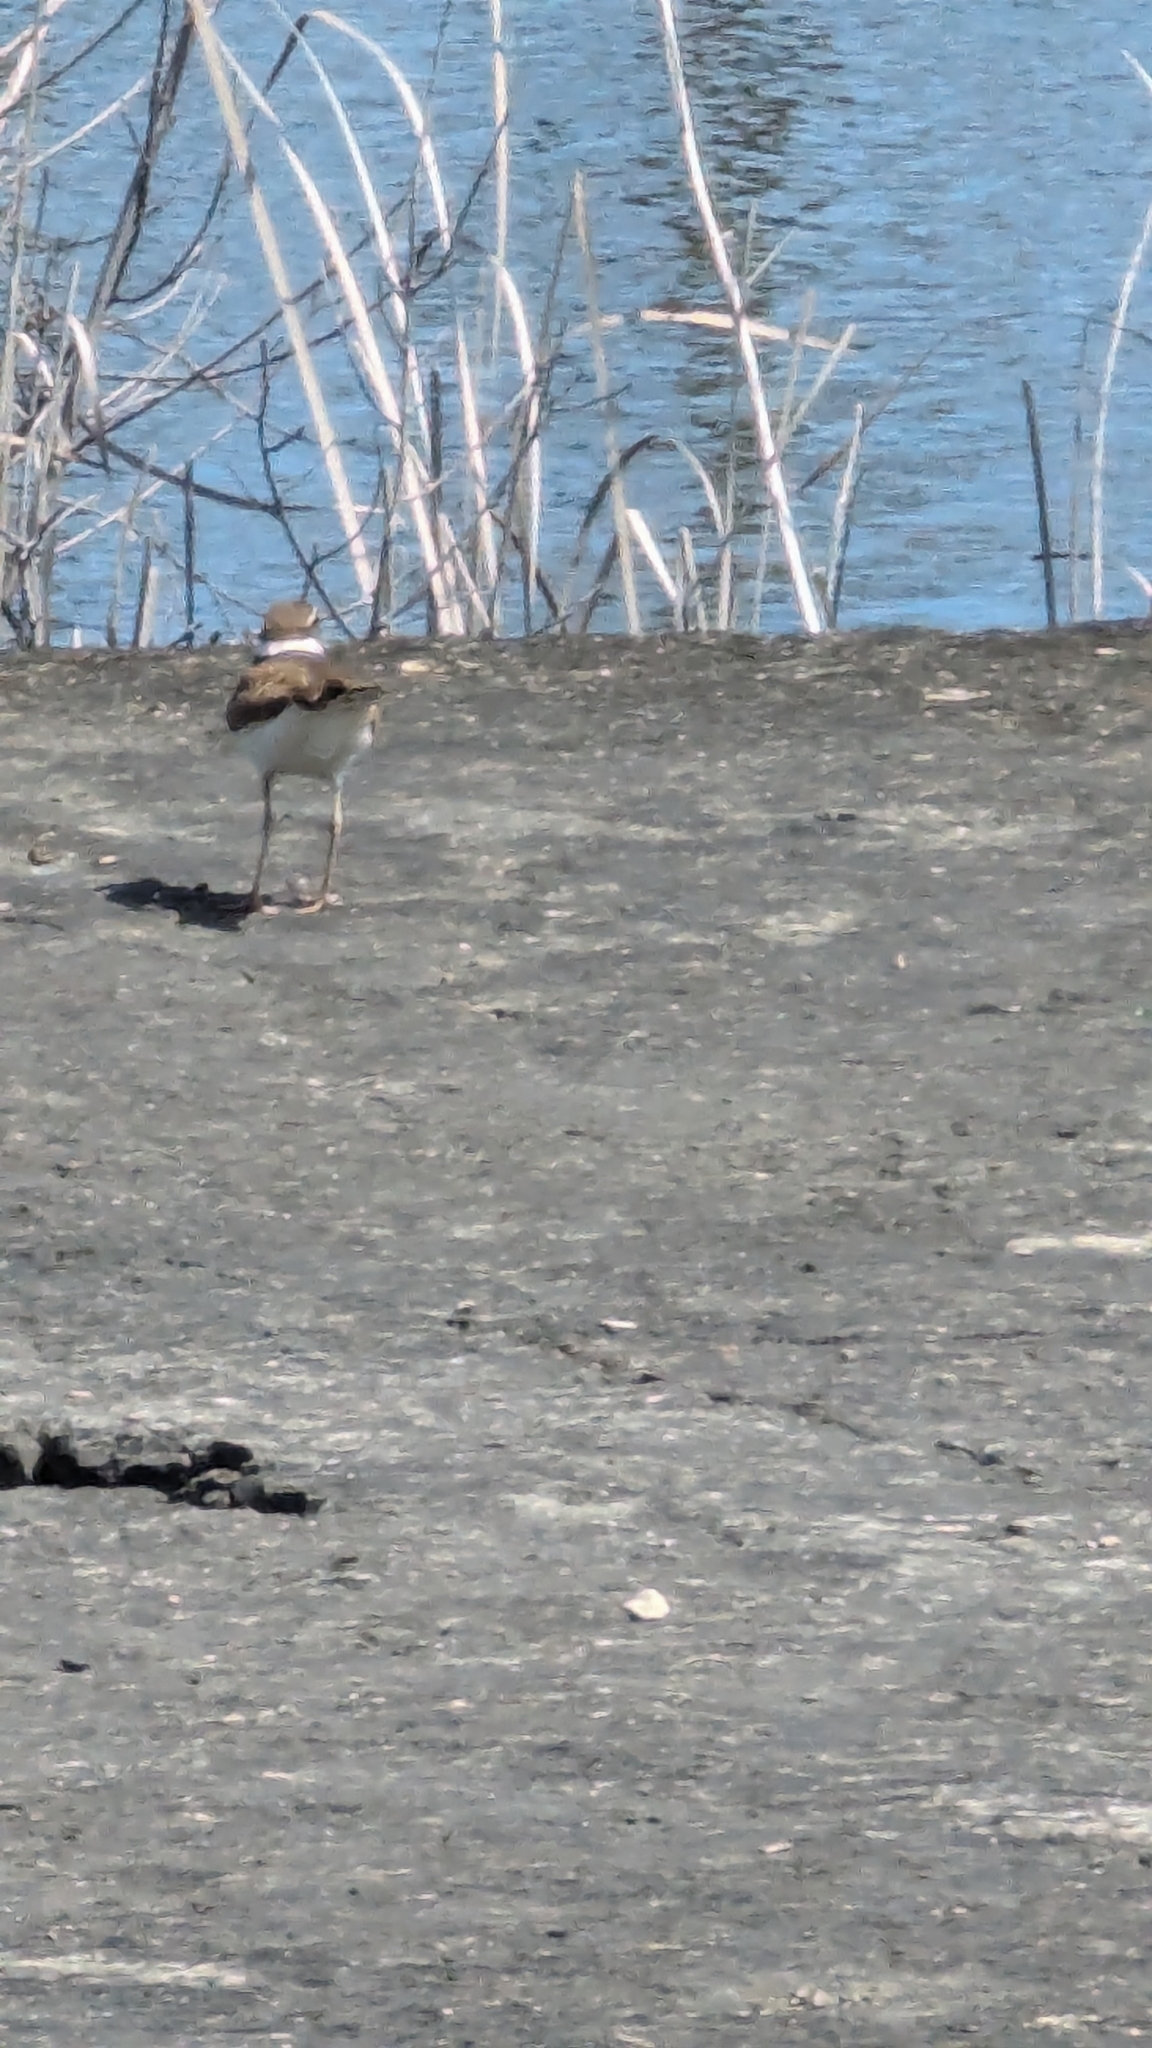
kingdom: Animalia
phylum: Chordata
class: Aves
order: Charadriiformes
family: Charadriidae
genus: Charadrius
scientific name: Charadrius vociferus
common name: Killdeer
